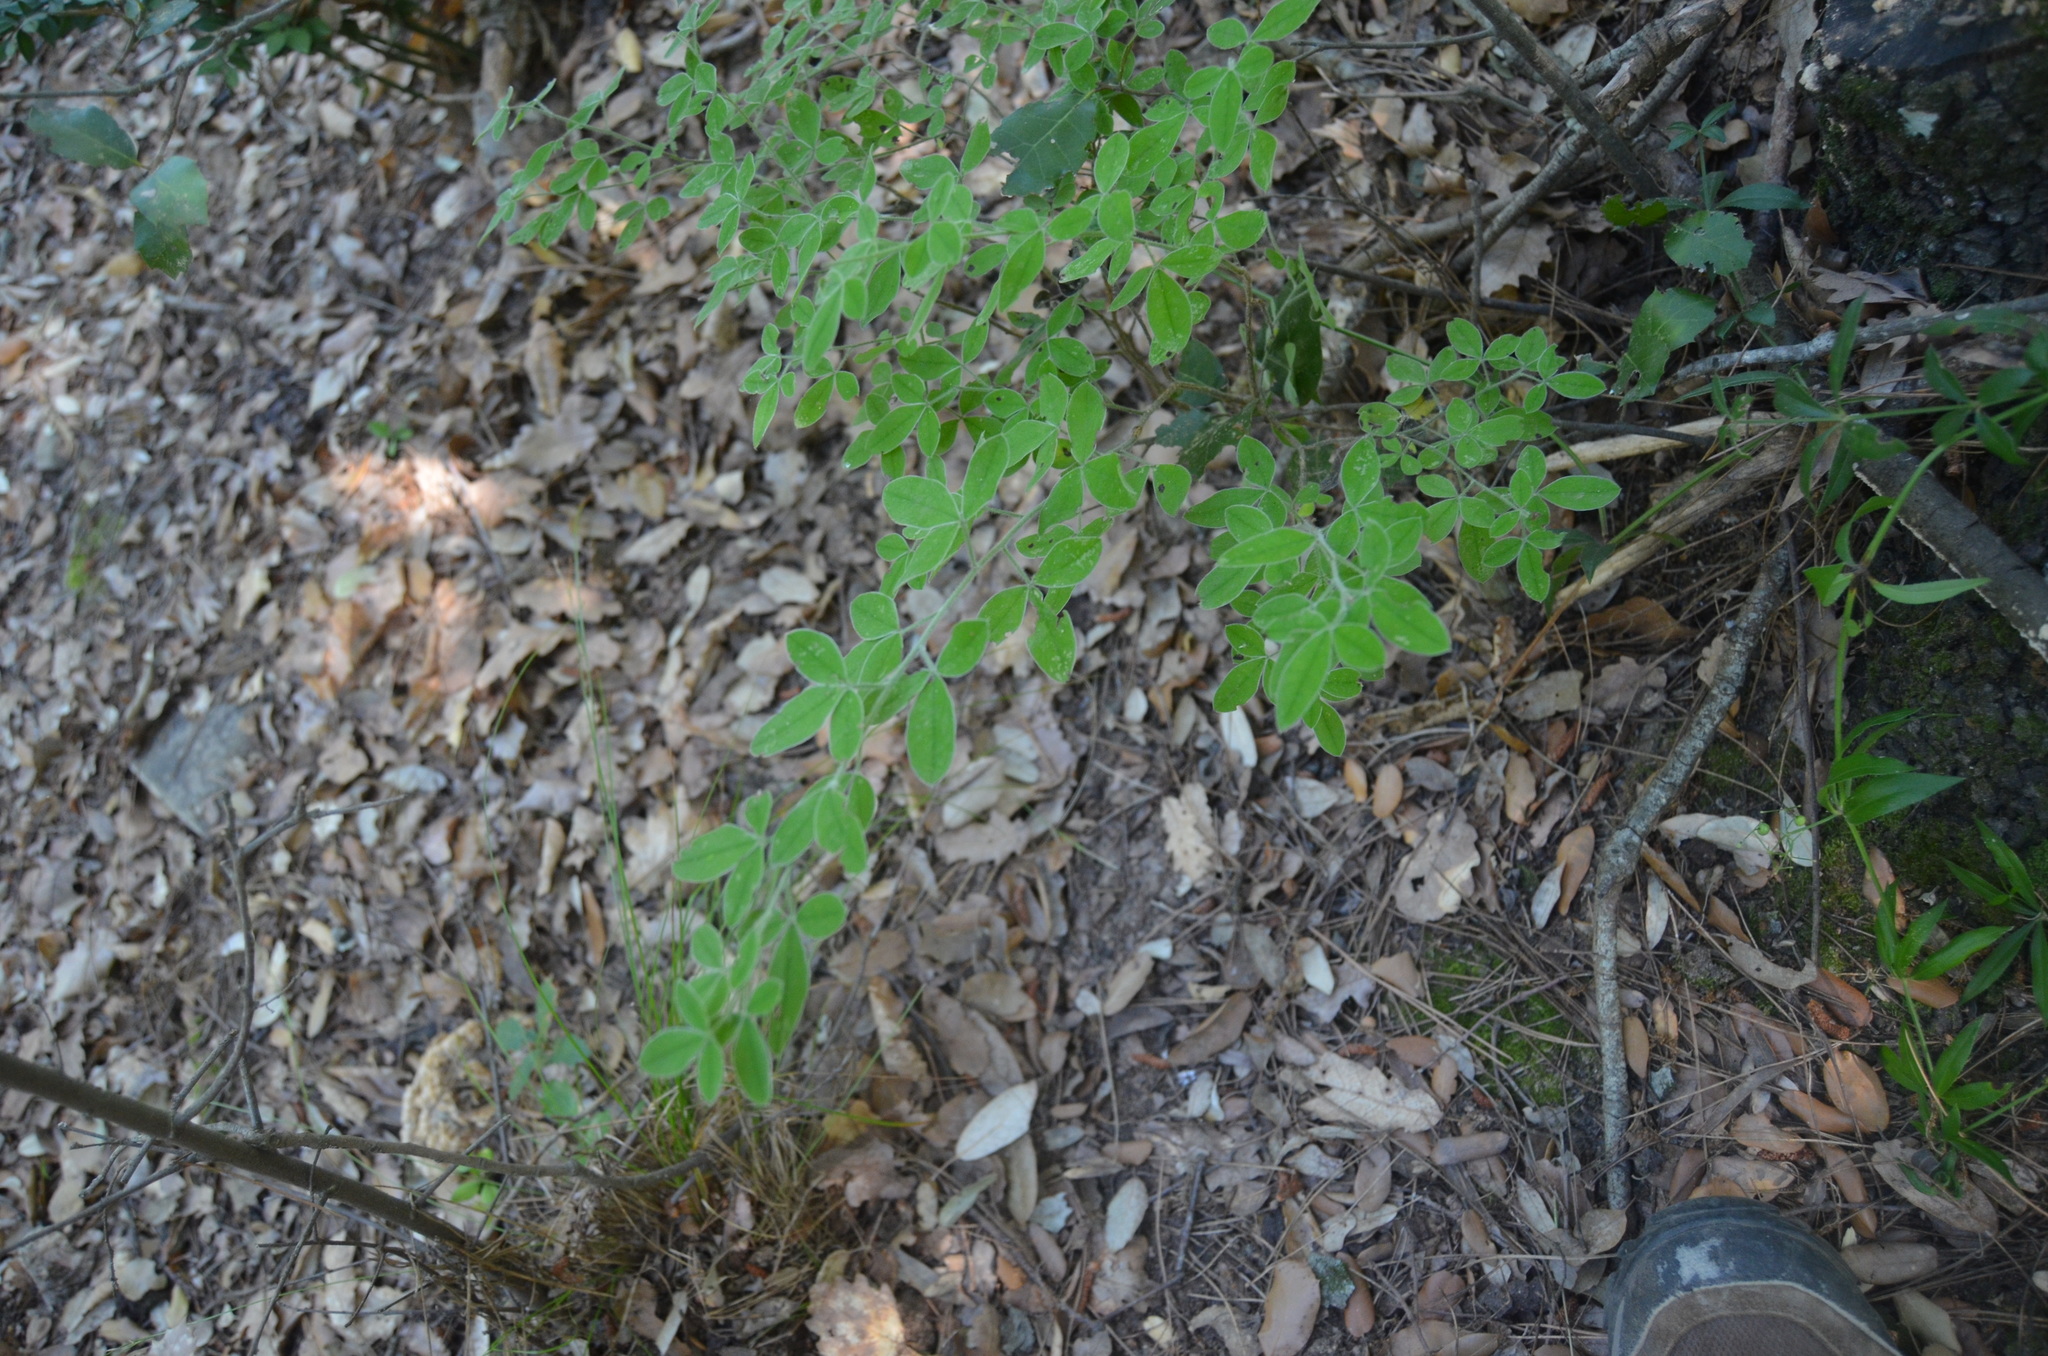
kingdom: Plantae
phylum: Tracheophyta
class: Magnoliopsida
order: Fabales
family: Fabaceae
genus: Cytisus
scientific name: Cytisus villosus
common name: Hairybroom
